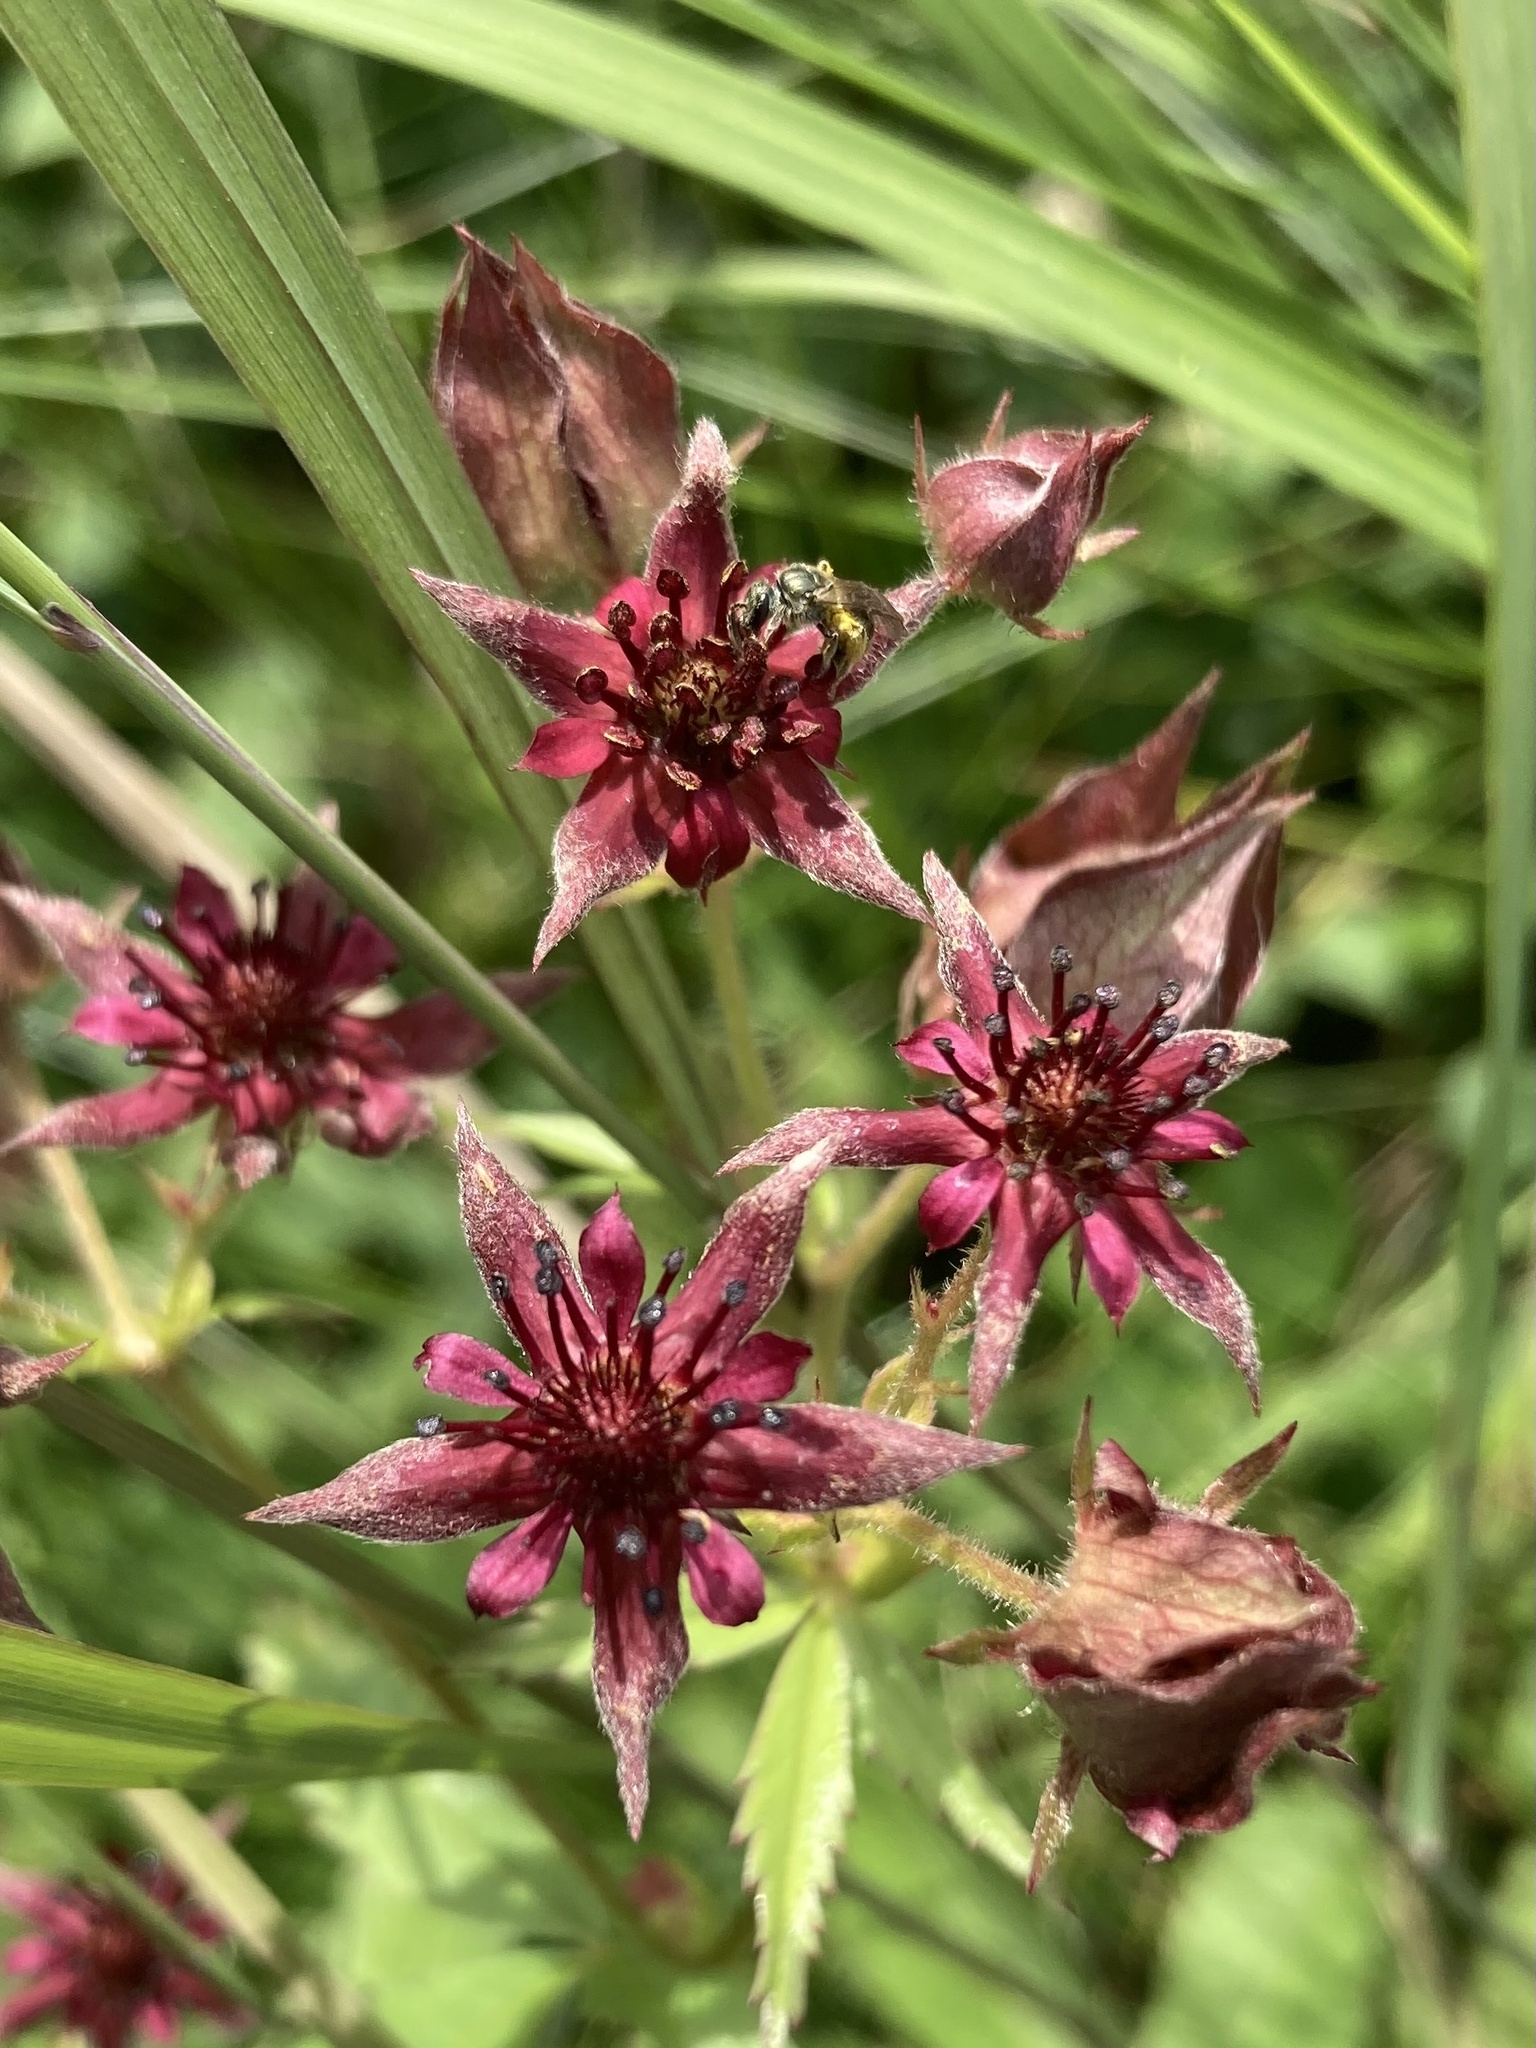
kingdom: Plantae
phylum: Tracheophyta
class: Magnoliopsida
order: Rosales
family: Rosaceae
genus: Comarum
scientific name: Comarum palustre
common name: Marsh cinquefoil
